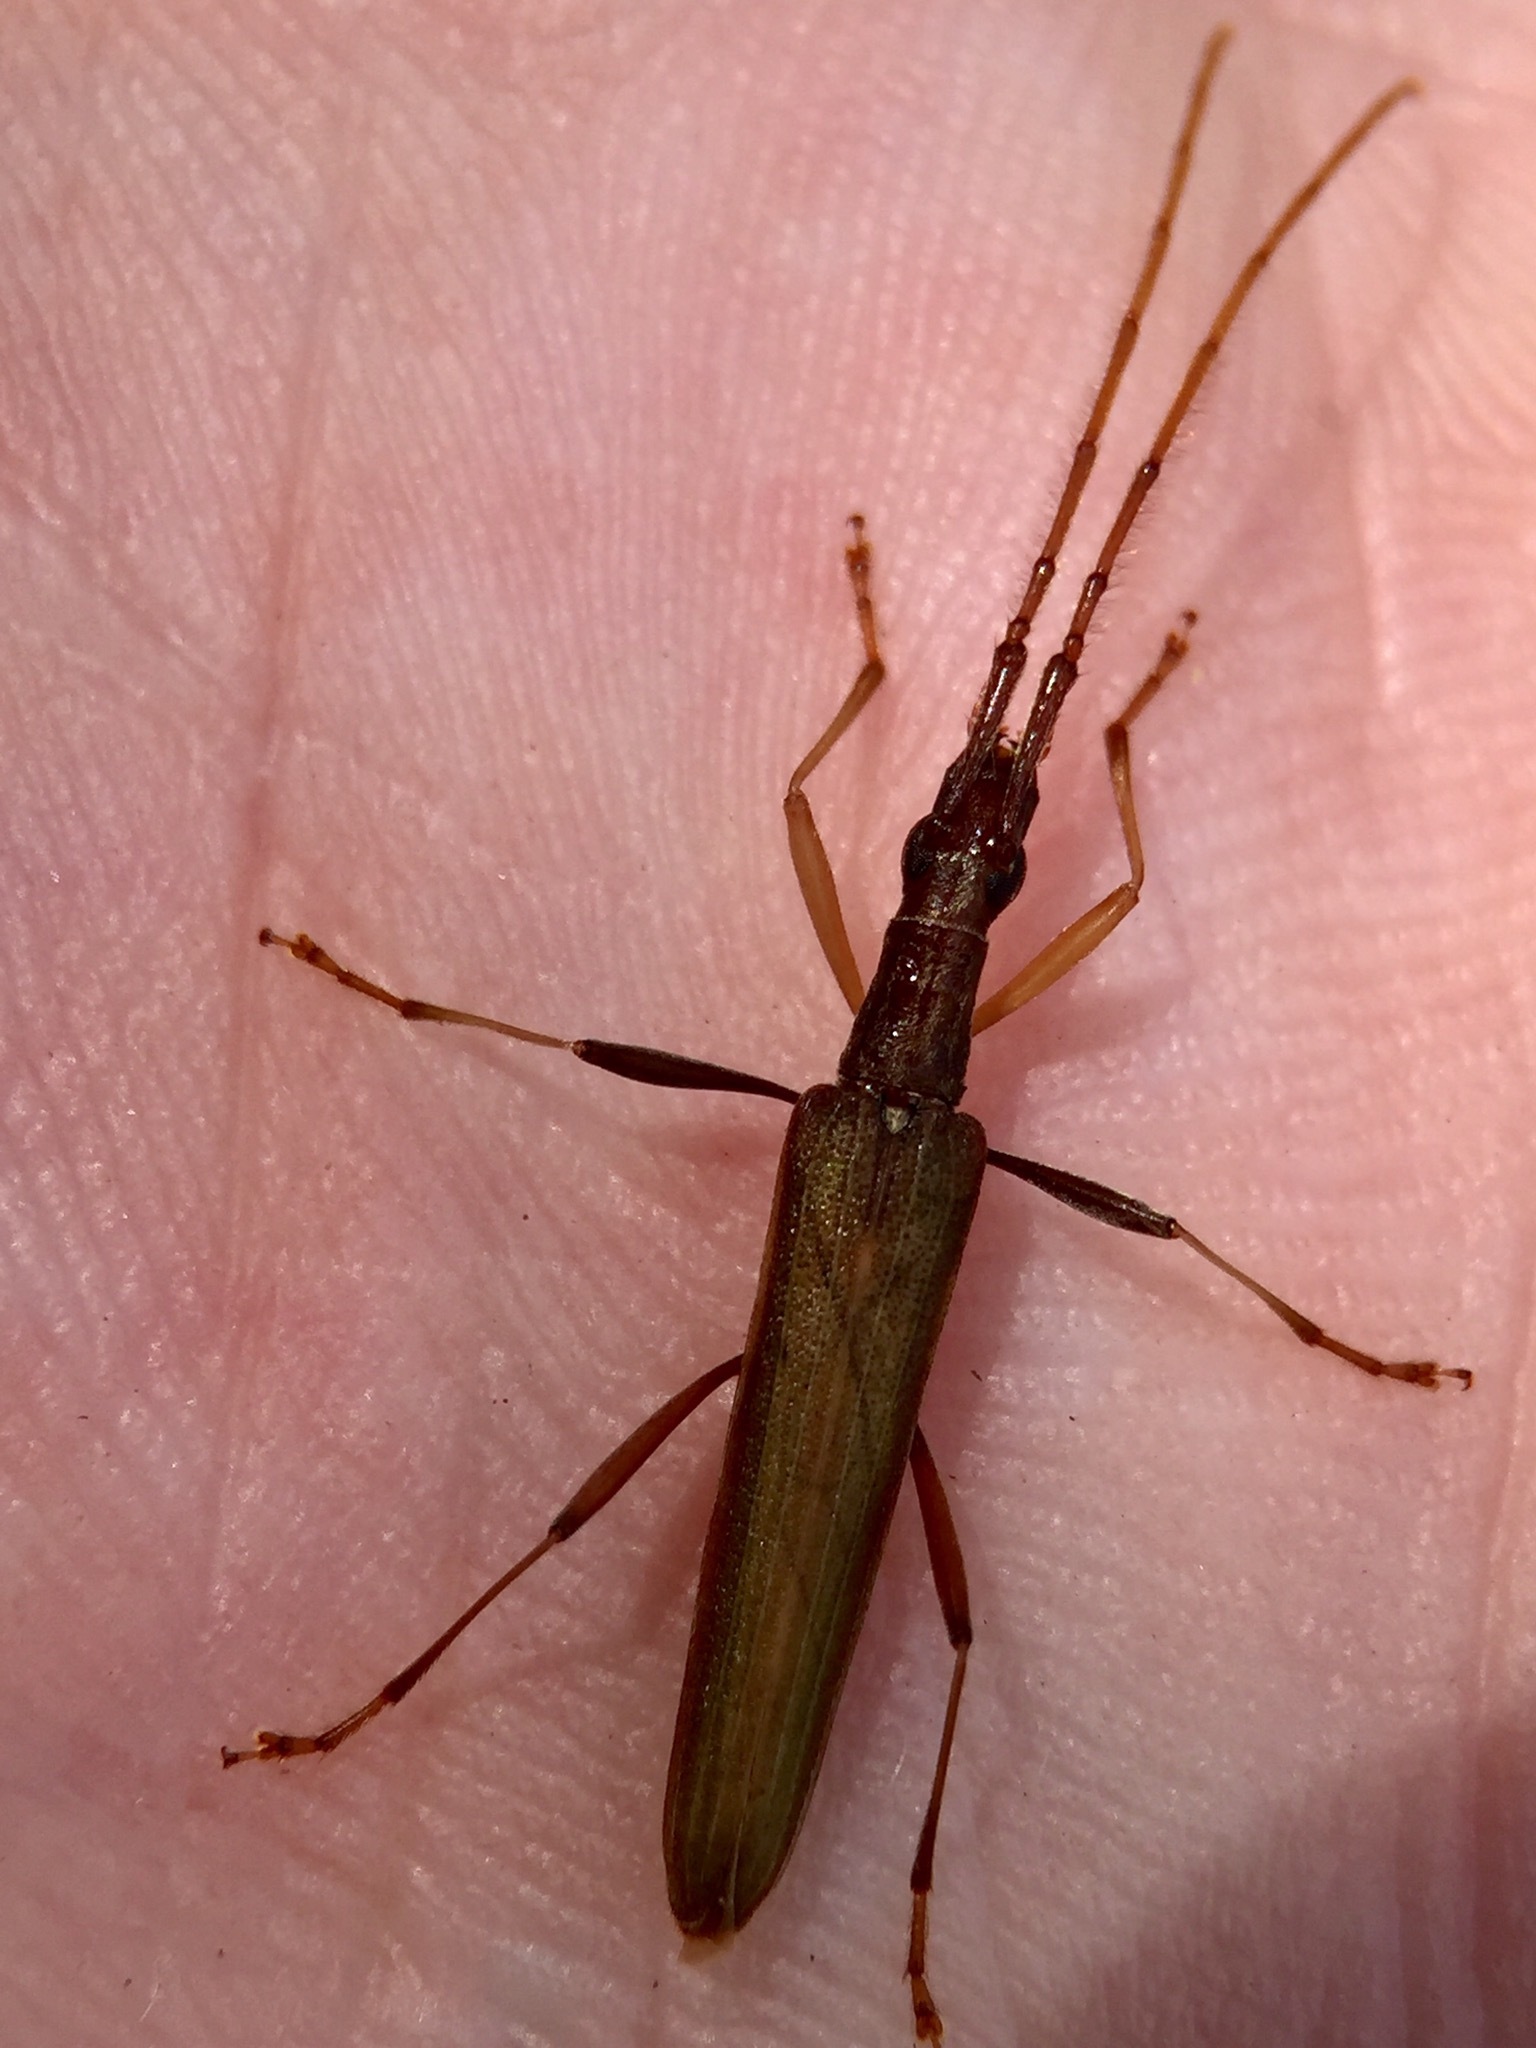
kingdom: Animalia
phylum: Arthropoda
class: Insecta
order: Coleoptera
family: Cerambycidae
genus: Stenopotes
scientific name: Stenopotes pallidus
